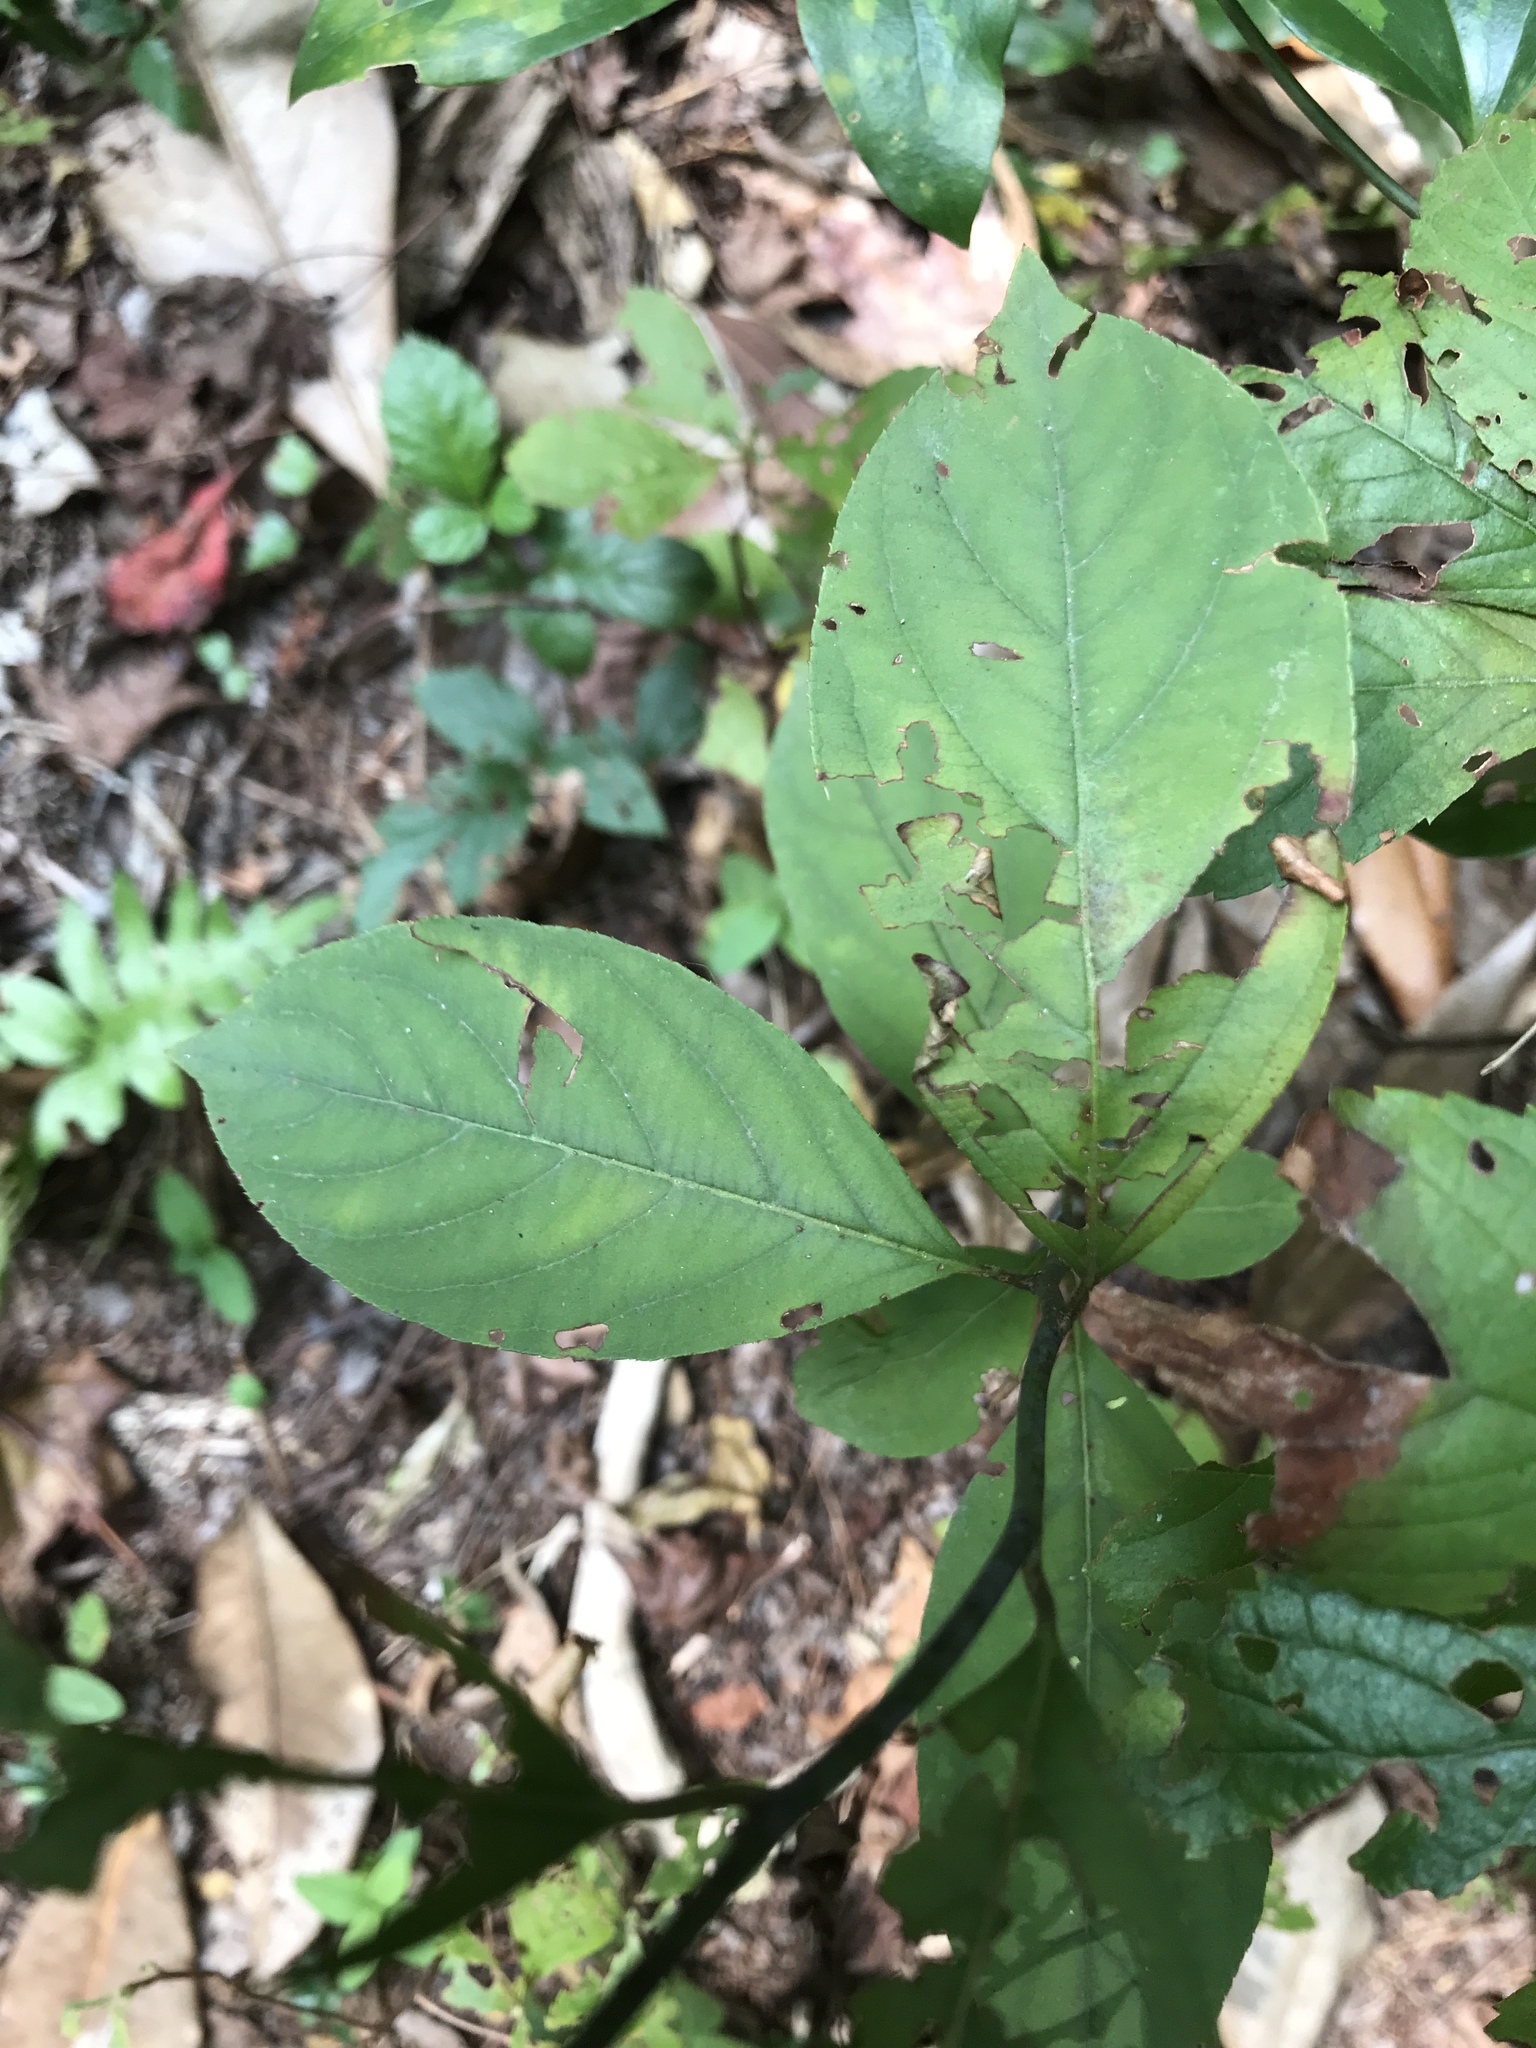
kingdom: Plantae
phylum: Tracheophyta
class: Magnoliopsida
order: Saxifragales
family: Iteaceae
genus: Itea
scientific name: Itea virginica
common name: Sweetspire
